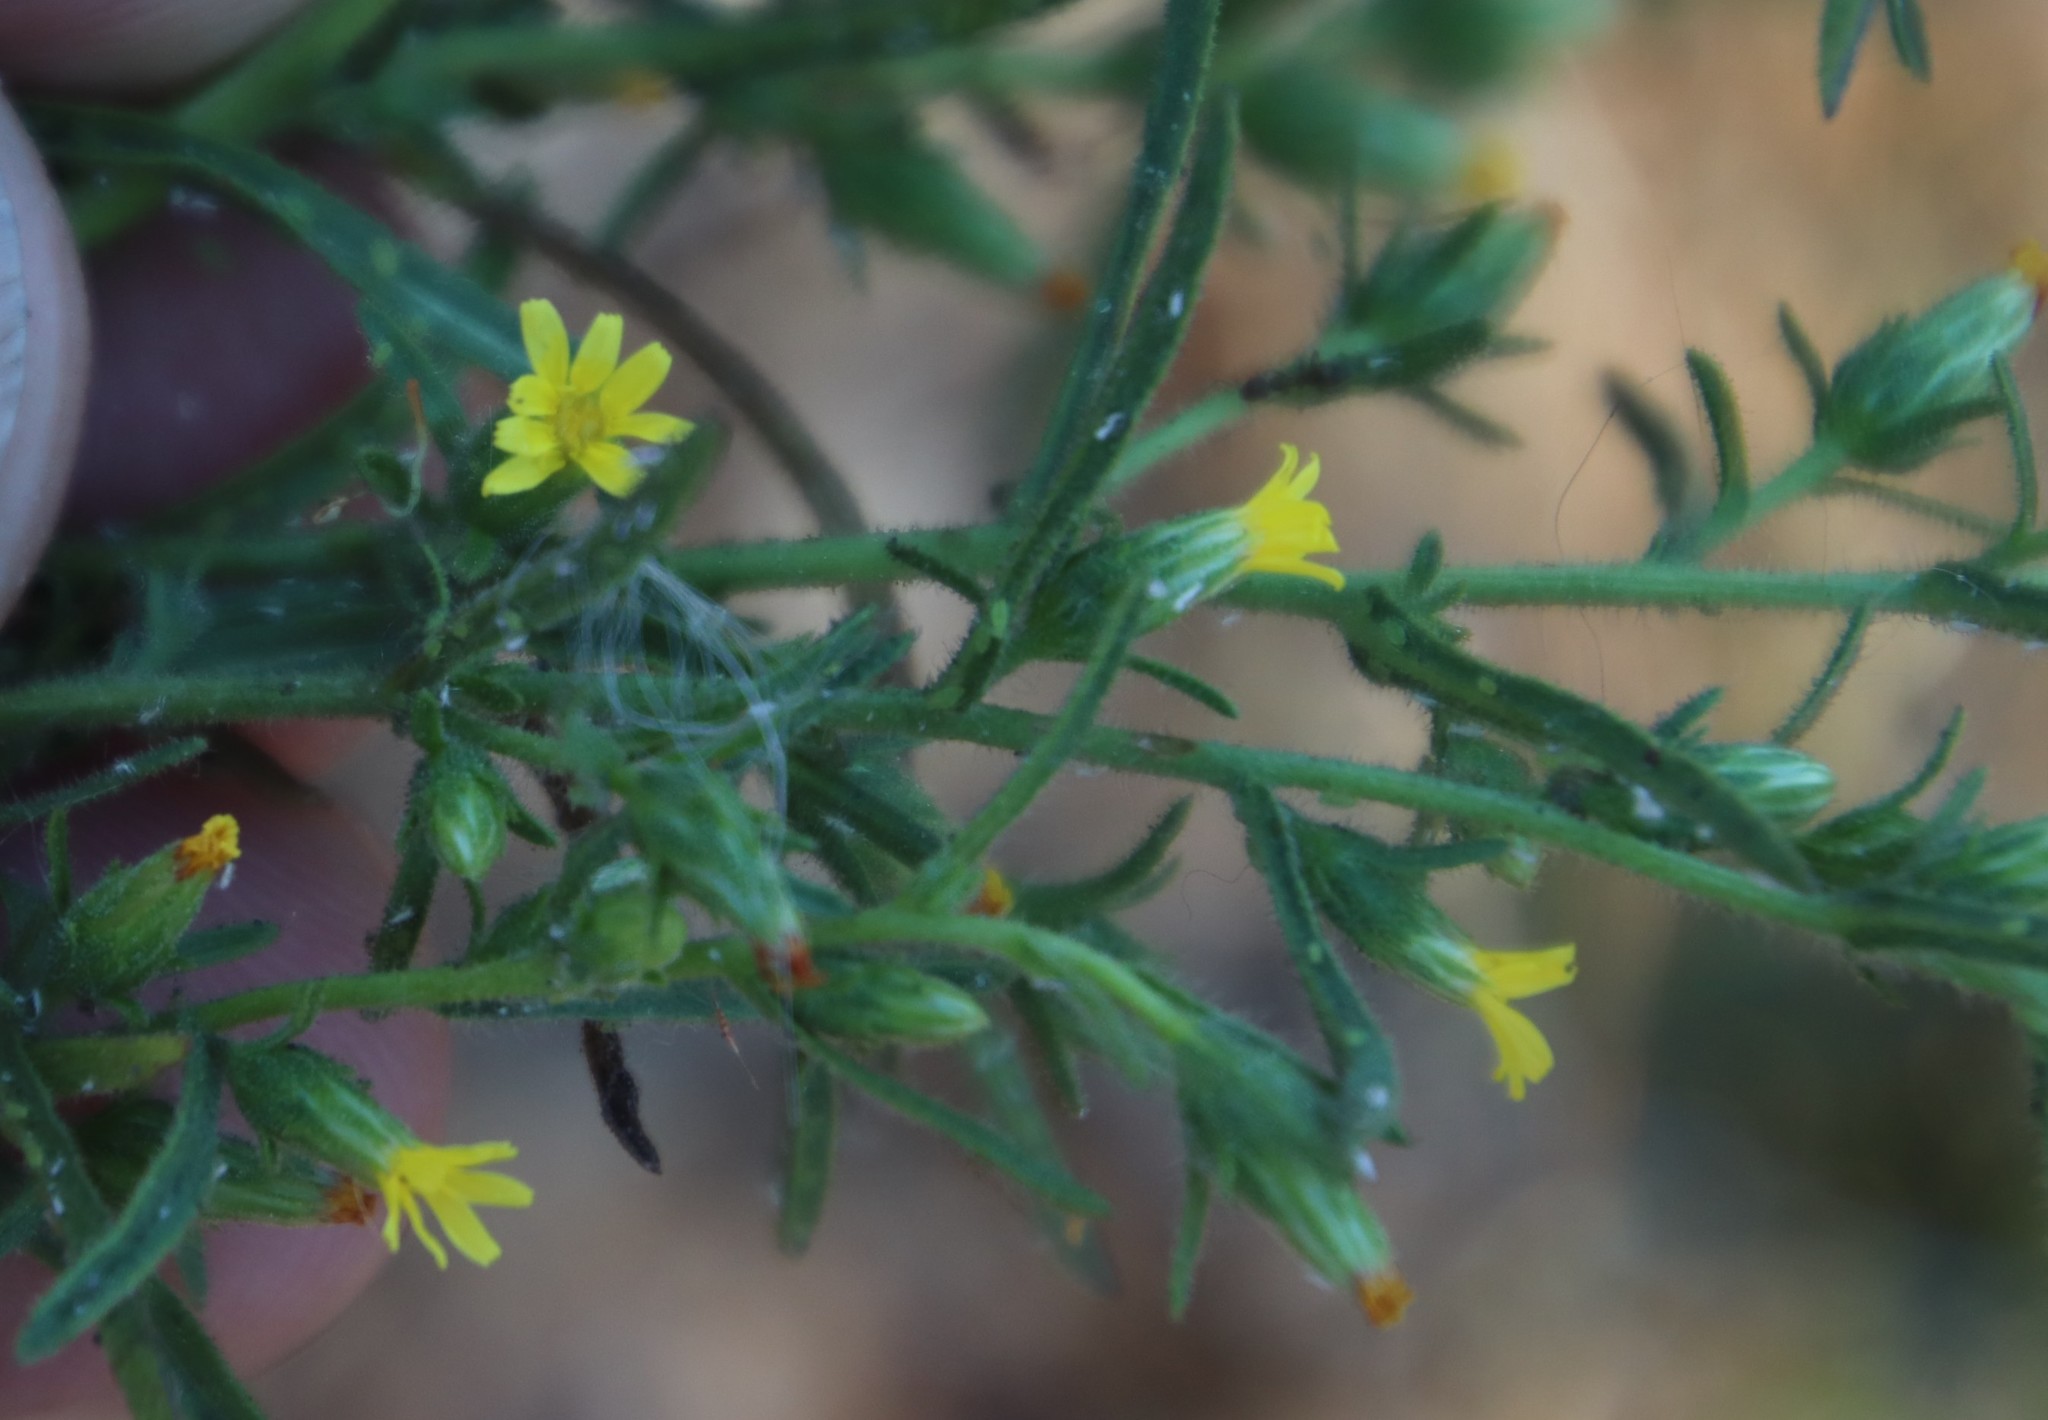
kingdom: Plantae
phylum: Tracheophyta
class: Magnoliopsida
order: Asterales
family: Asteraceae
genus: Dittrichia
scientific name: Dittrichia graveolens
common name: Stinking fleabane
